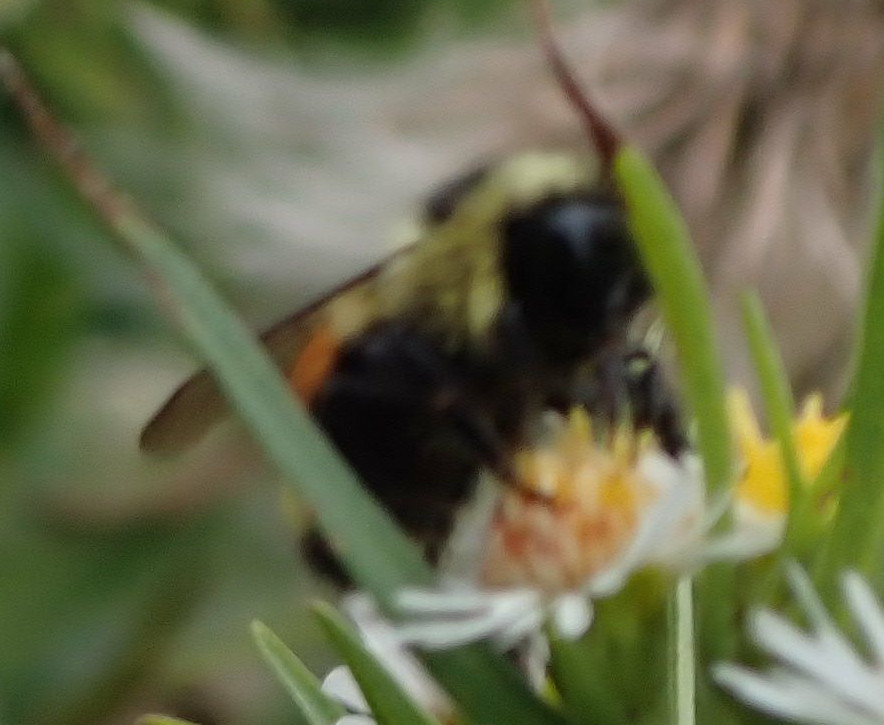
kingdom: Animalia
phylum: Arthropoda
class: Insecta
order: Hymenoptera
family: Apidae
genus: Bombus
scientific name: Bombus ternarius
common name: Tri-colored bumble bee
